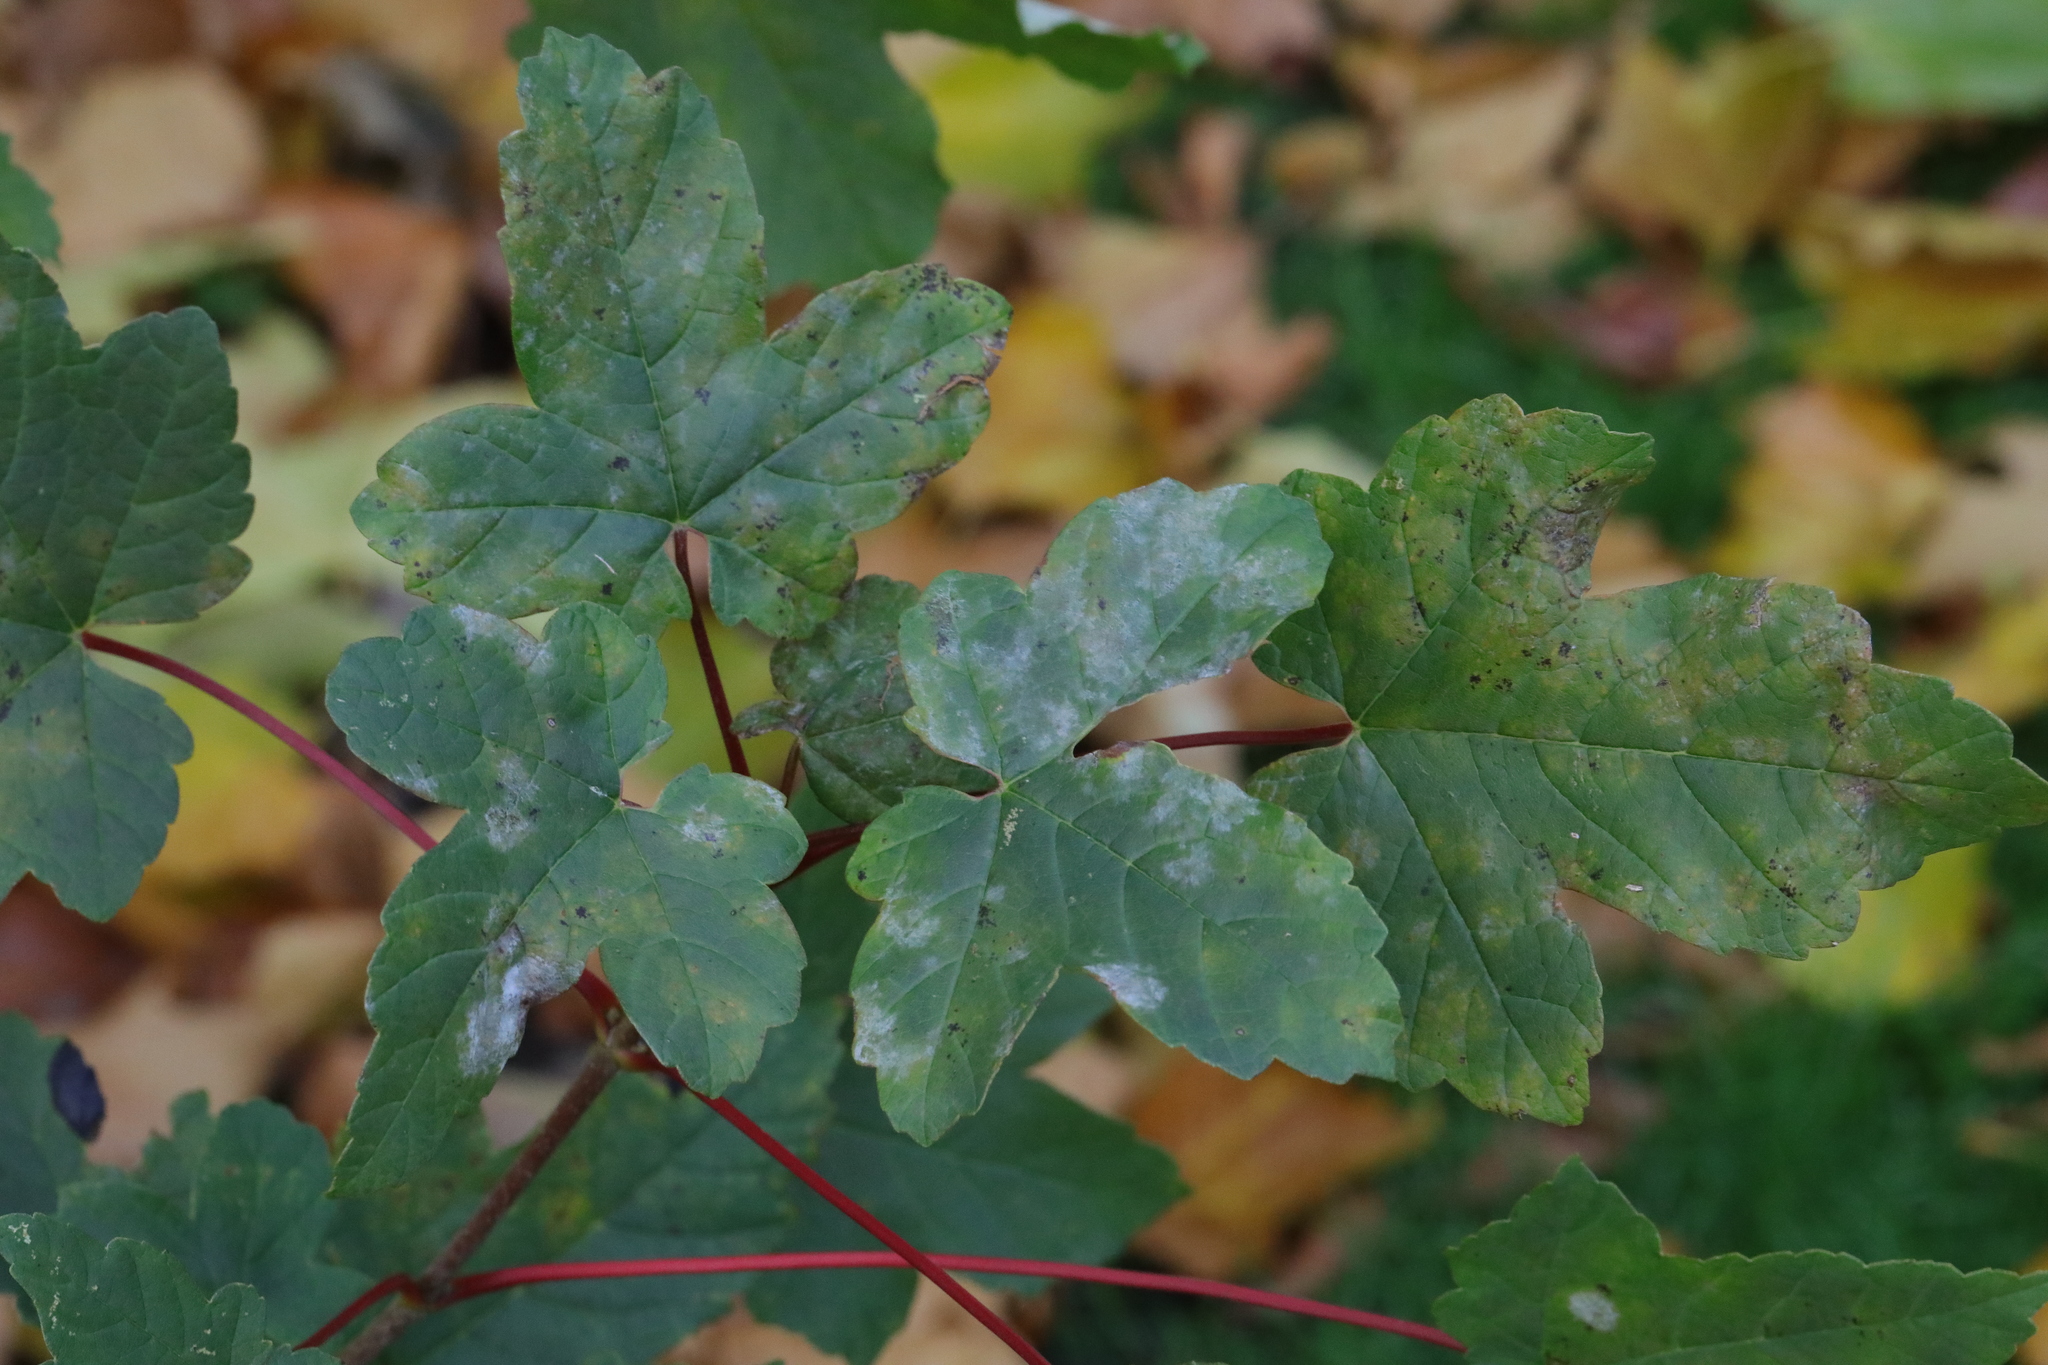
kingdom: Plantae
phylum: Tracheophyta
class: Magnoliopsida
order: Sapindales
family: Sapindaceae
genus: Acer
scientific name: Acer pseudoplatanus
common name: Sycamore
